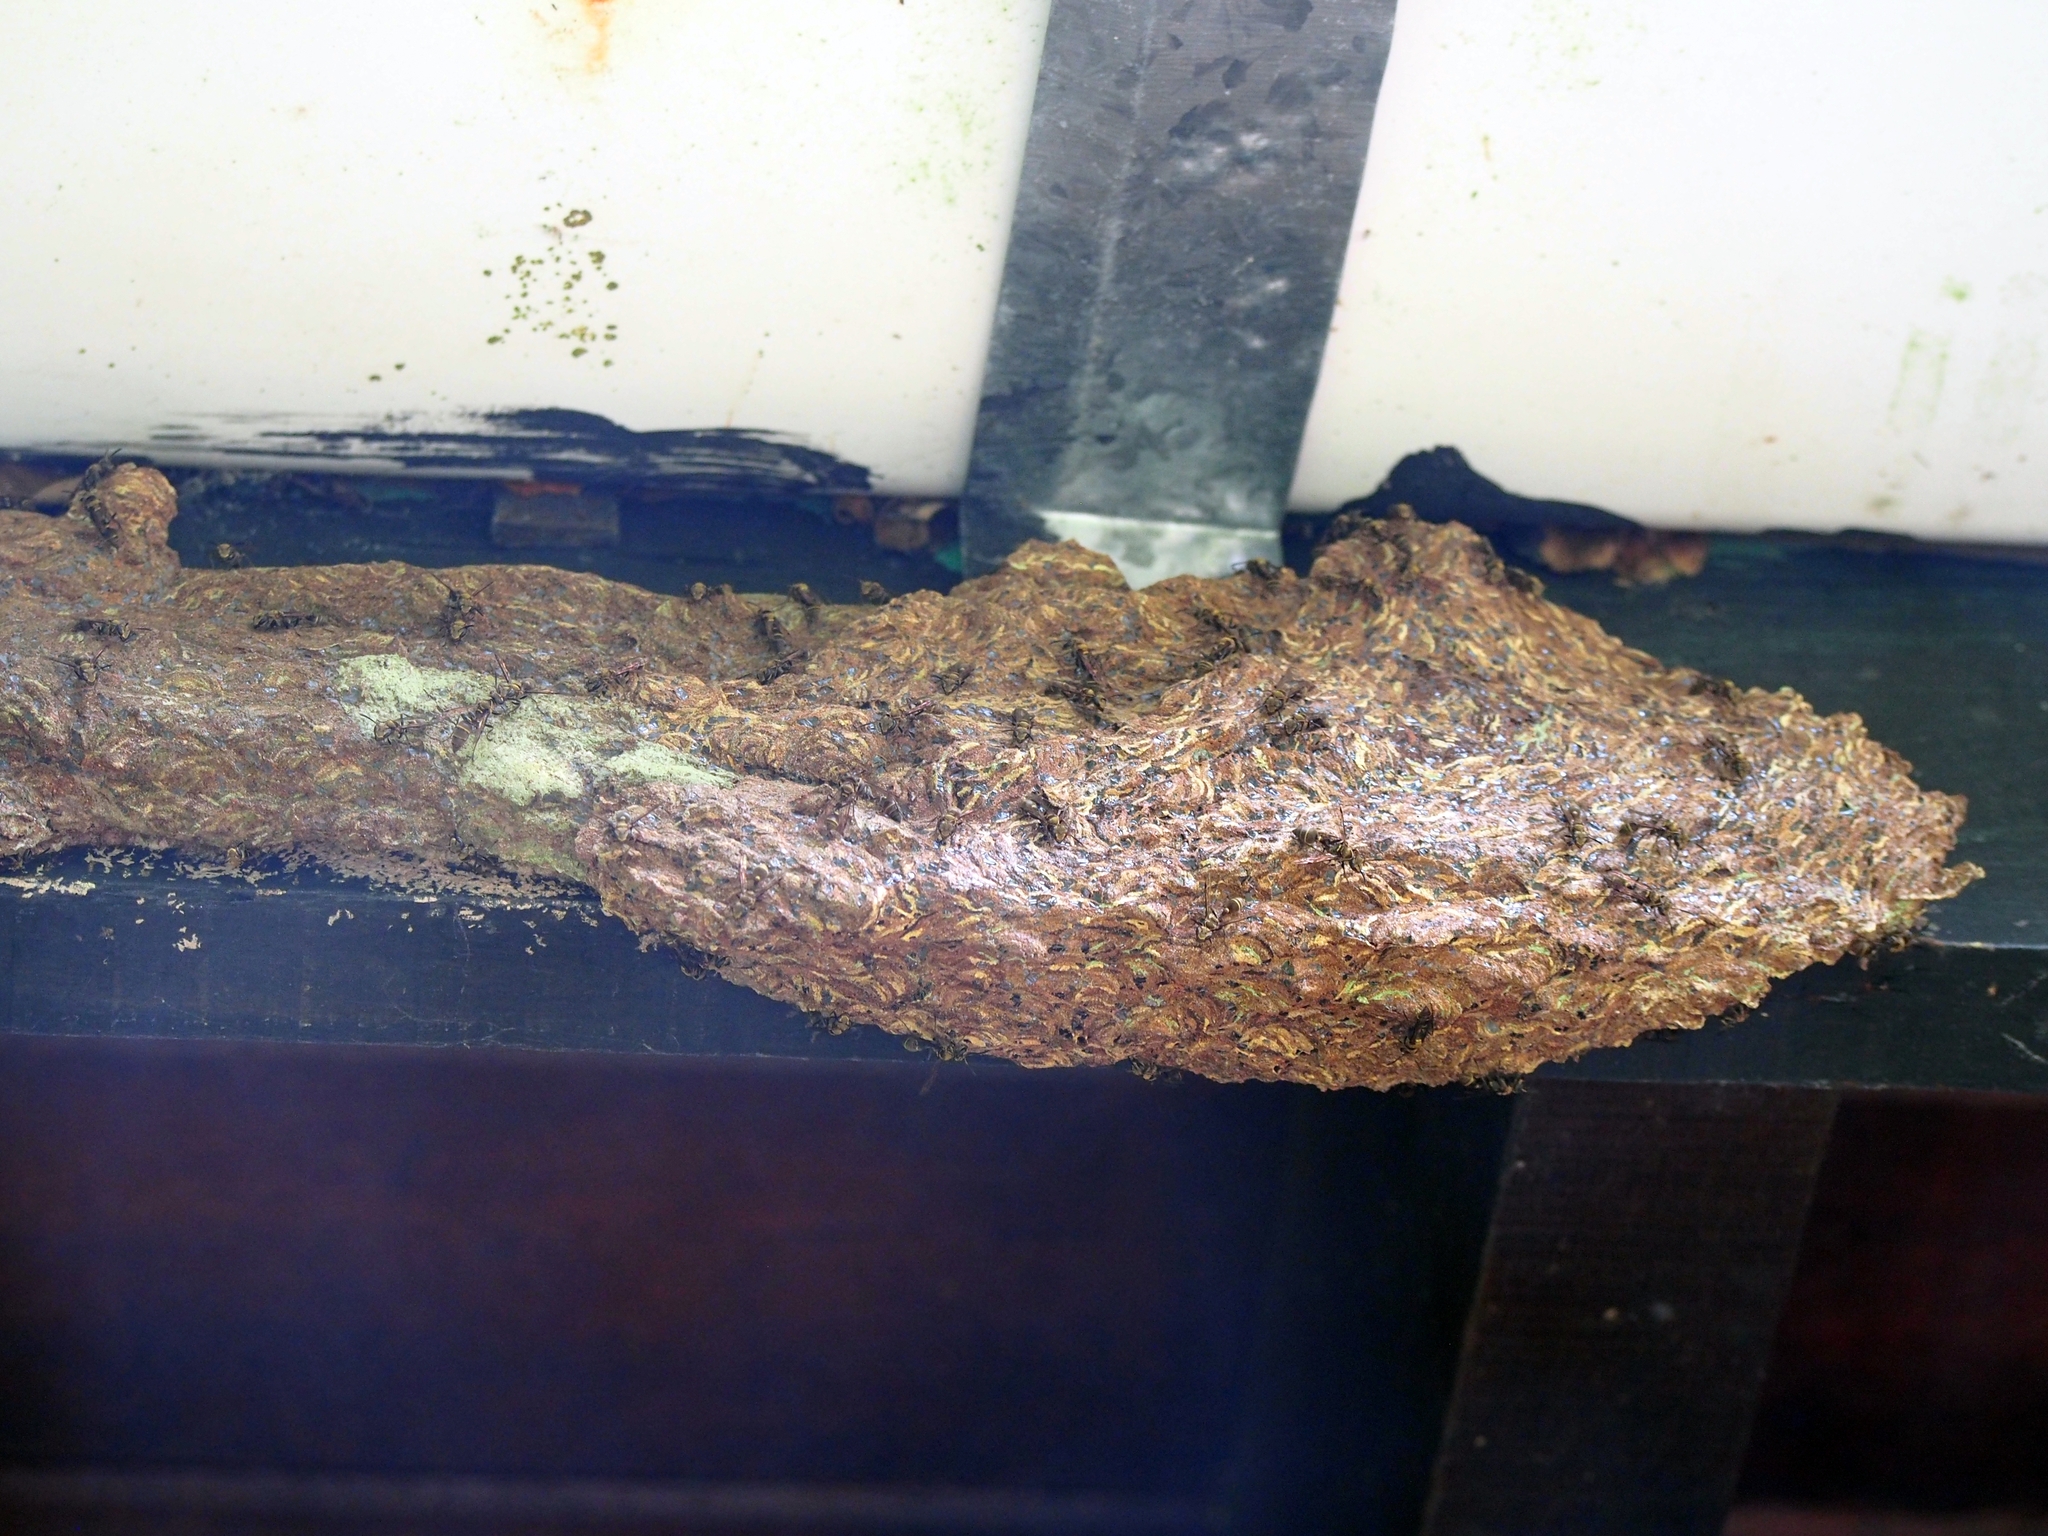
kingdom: Animalia
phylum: Arthropoda
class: Insecta
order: Hymenoptera
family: Vespidae
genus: Metapolybia
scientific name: Metapolybia azteca
